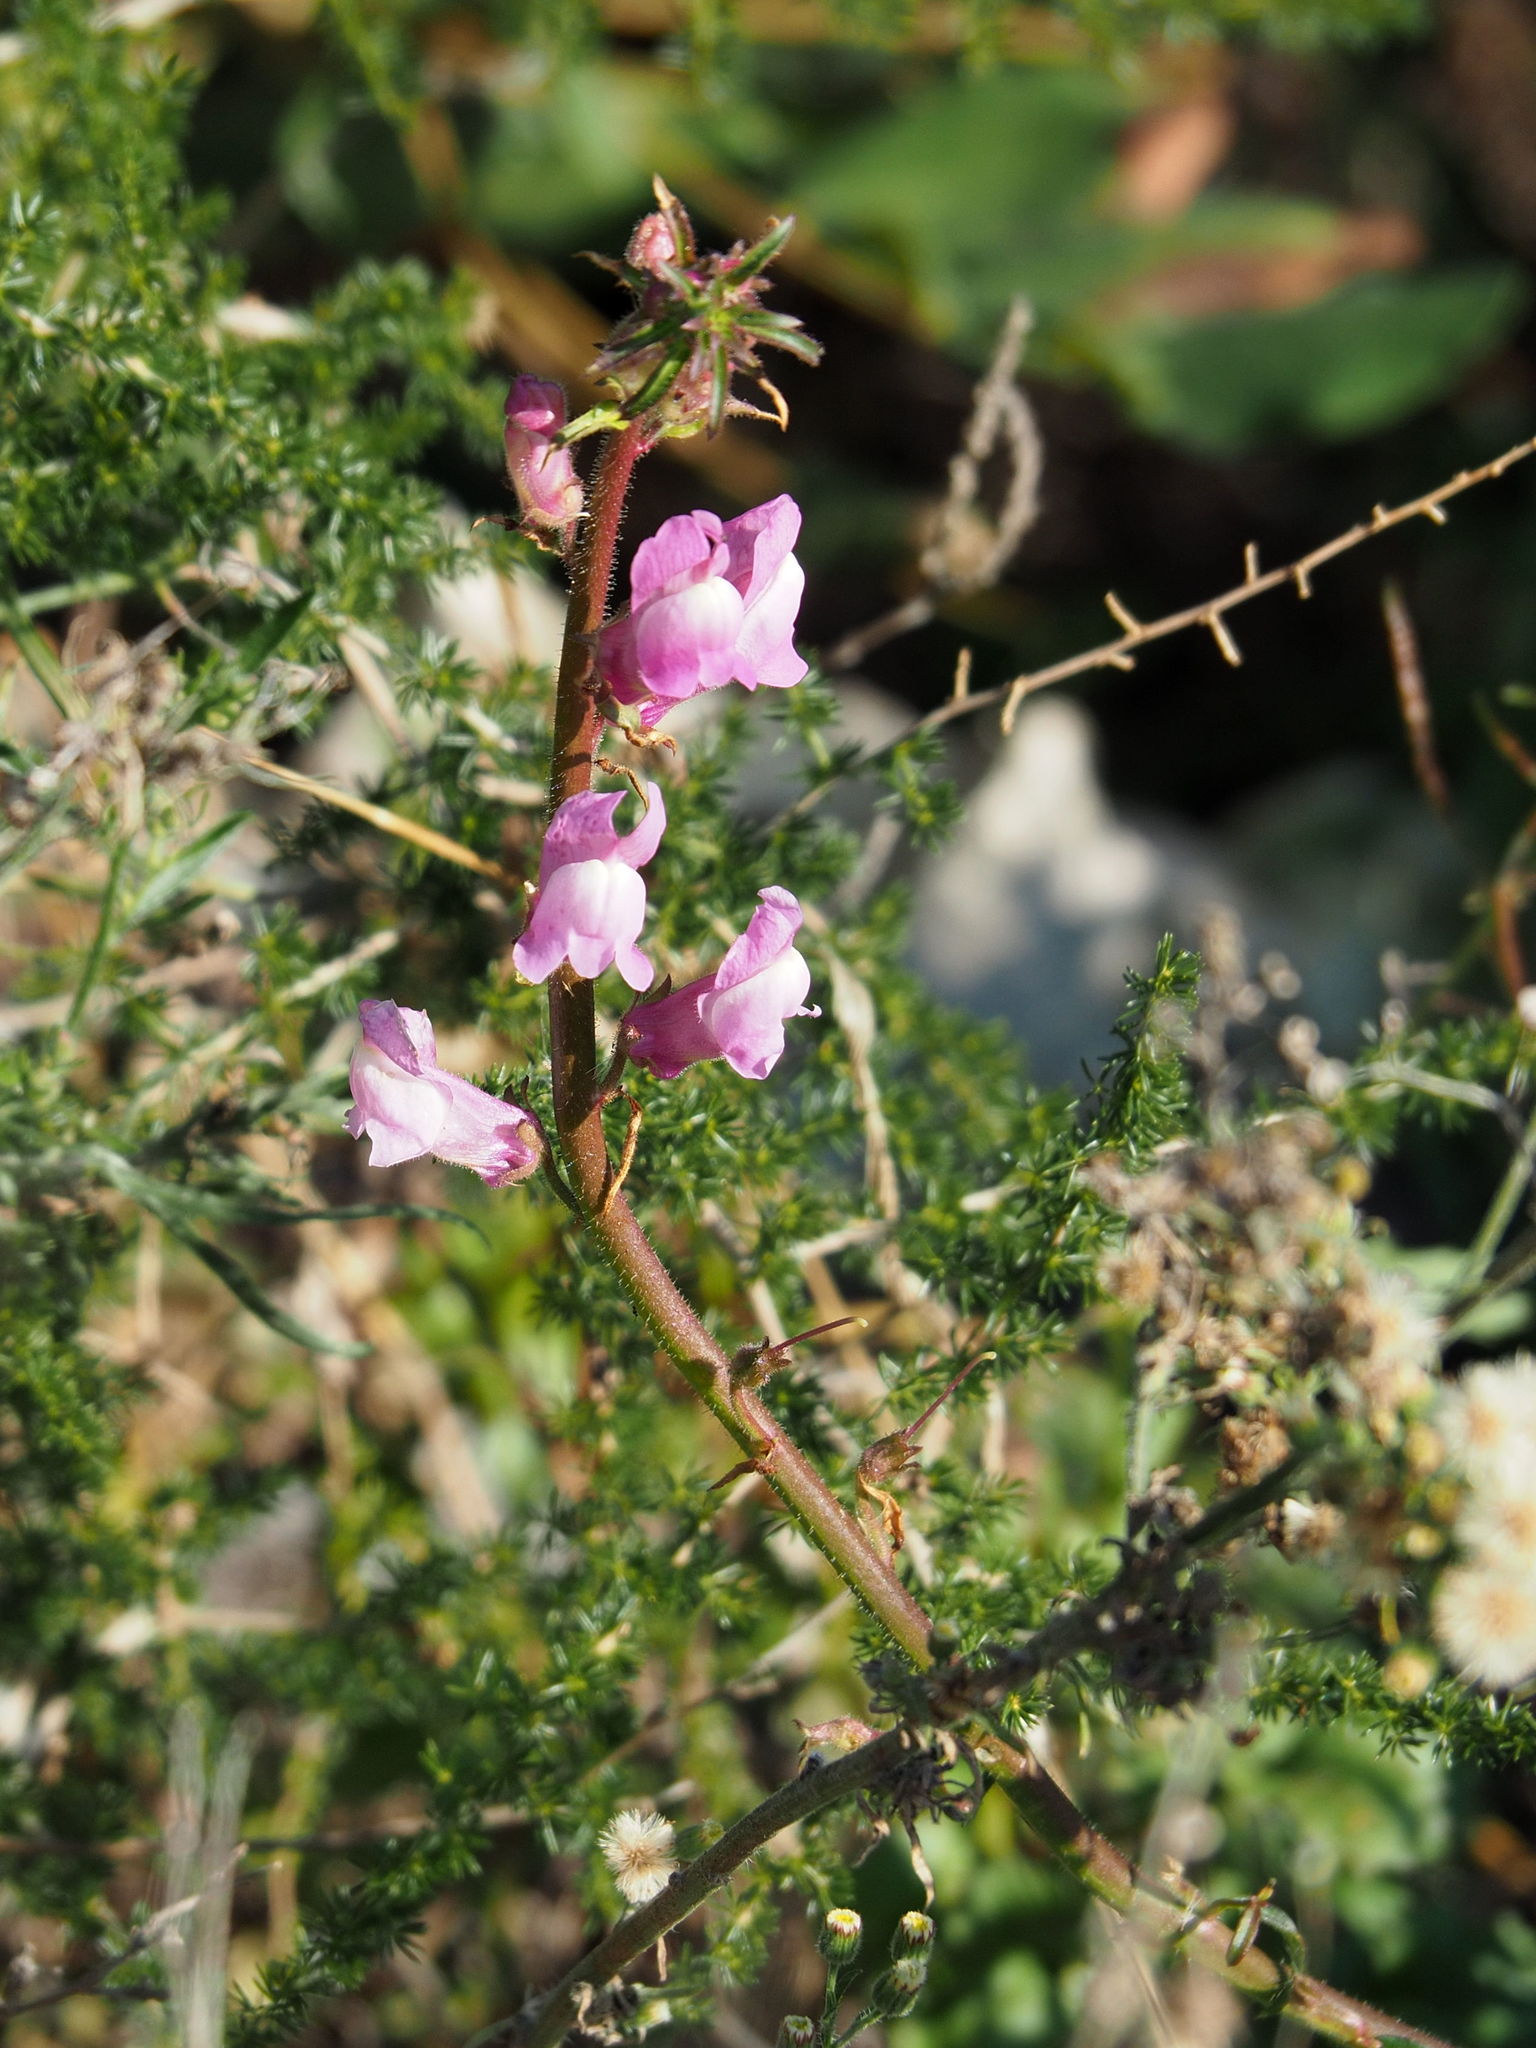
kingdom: Plantae
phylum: Tracheophyta
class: Magnoliopsida
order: Lamiales
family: Plantaginaceae
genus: Antirrhinum
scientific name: Antirrhinum controversum
